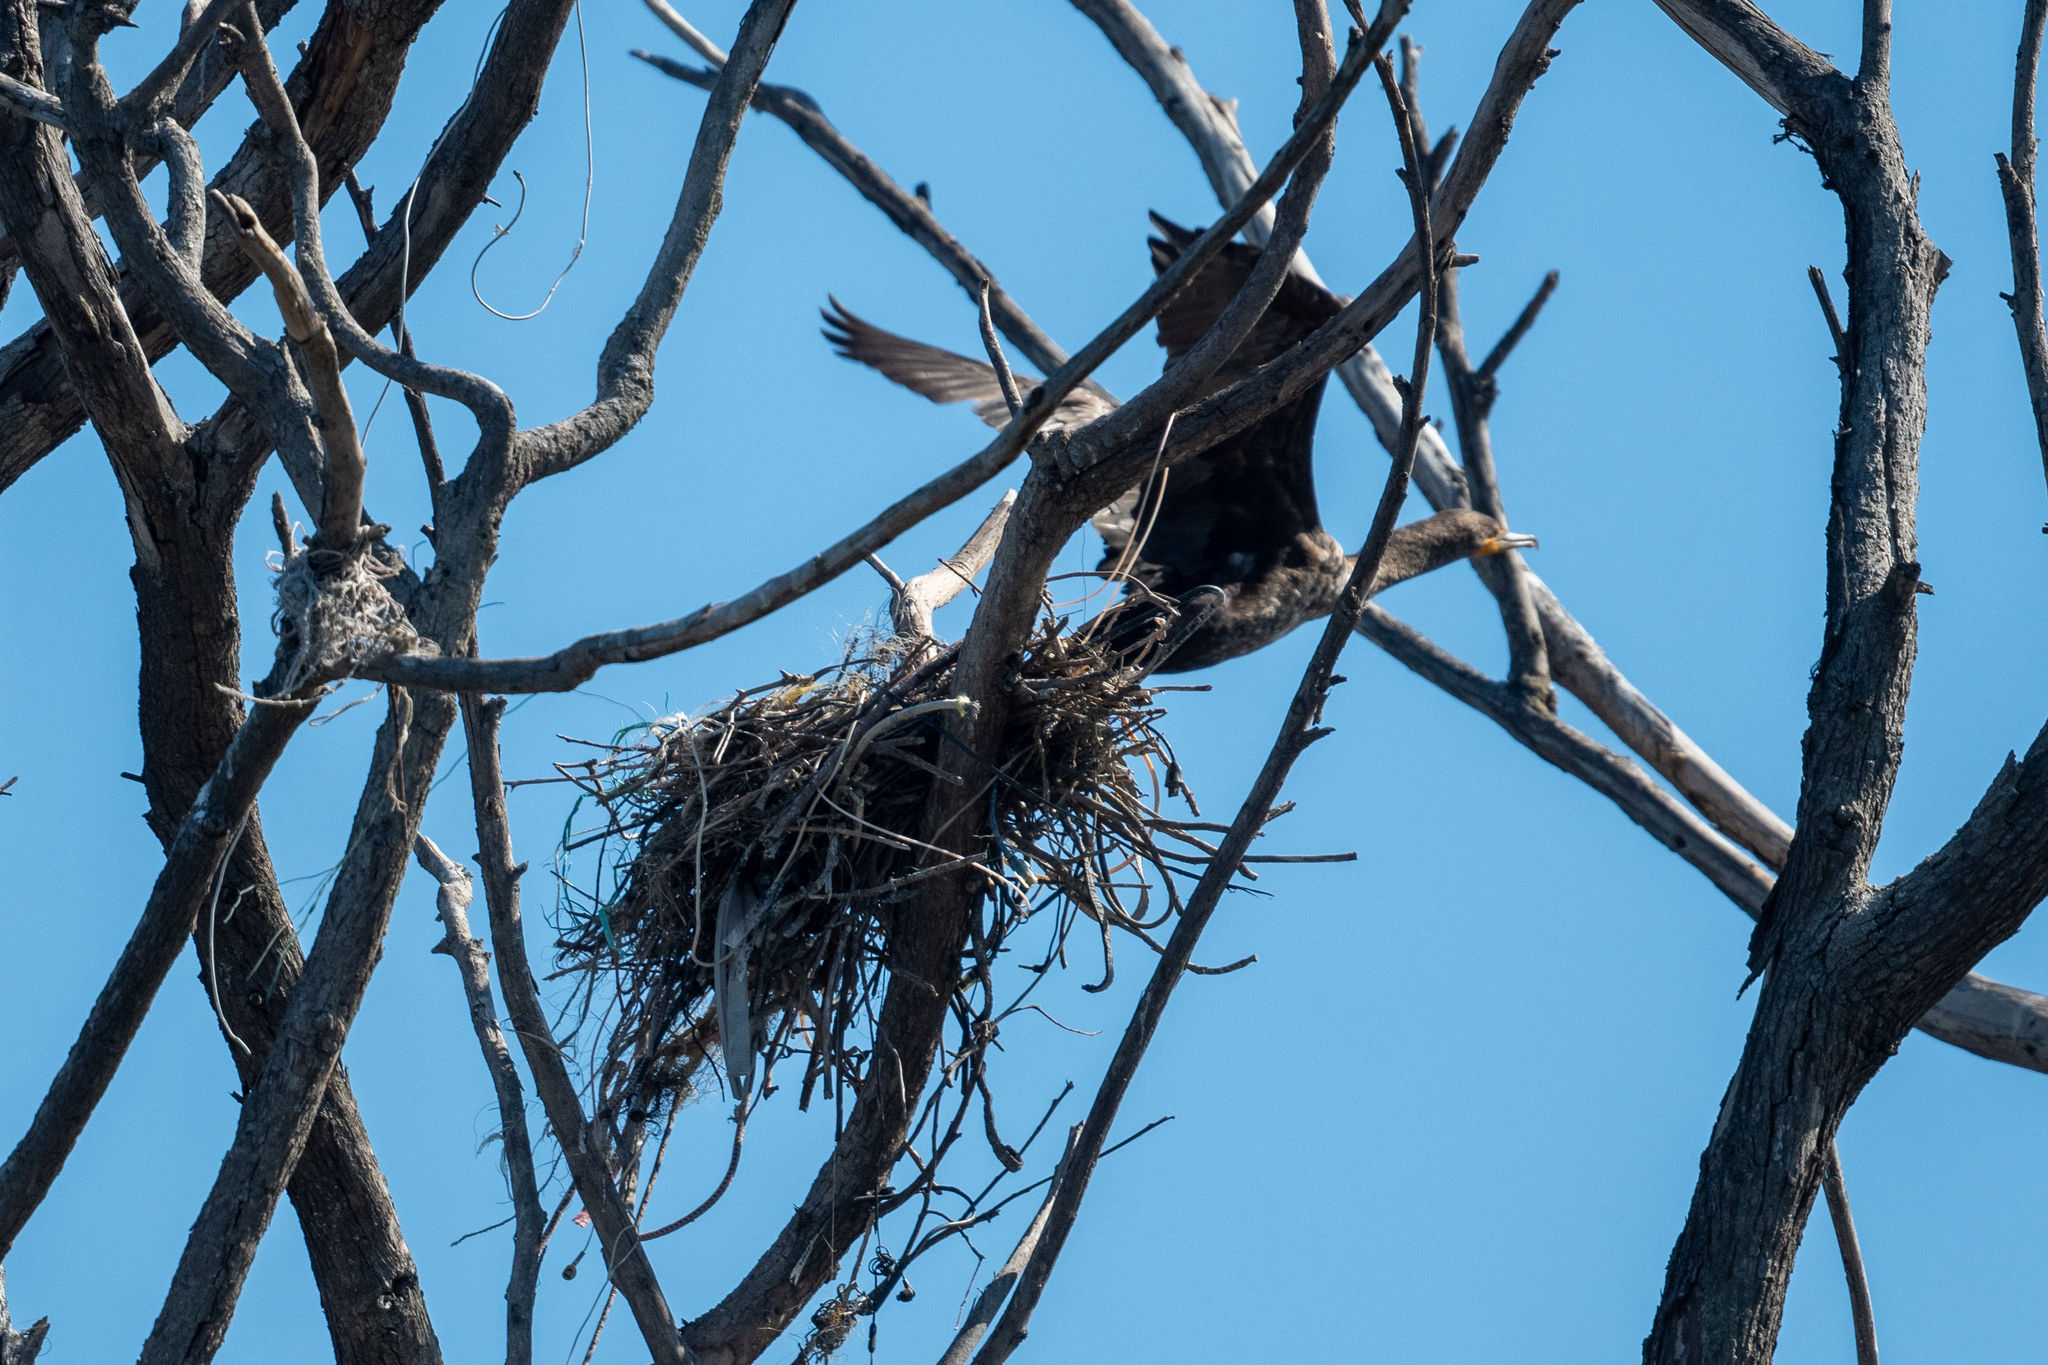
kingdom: Animalia
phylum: Chordata
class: Aves
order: Suliformes
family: Phalacrocoracidae
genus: Phalacrocorax
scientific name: Phalacrocorax auritus
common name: Double-crested cormorant
